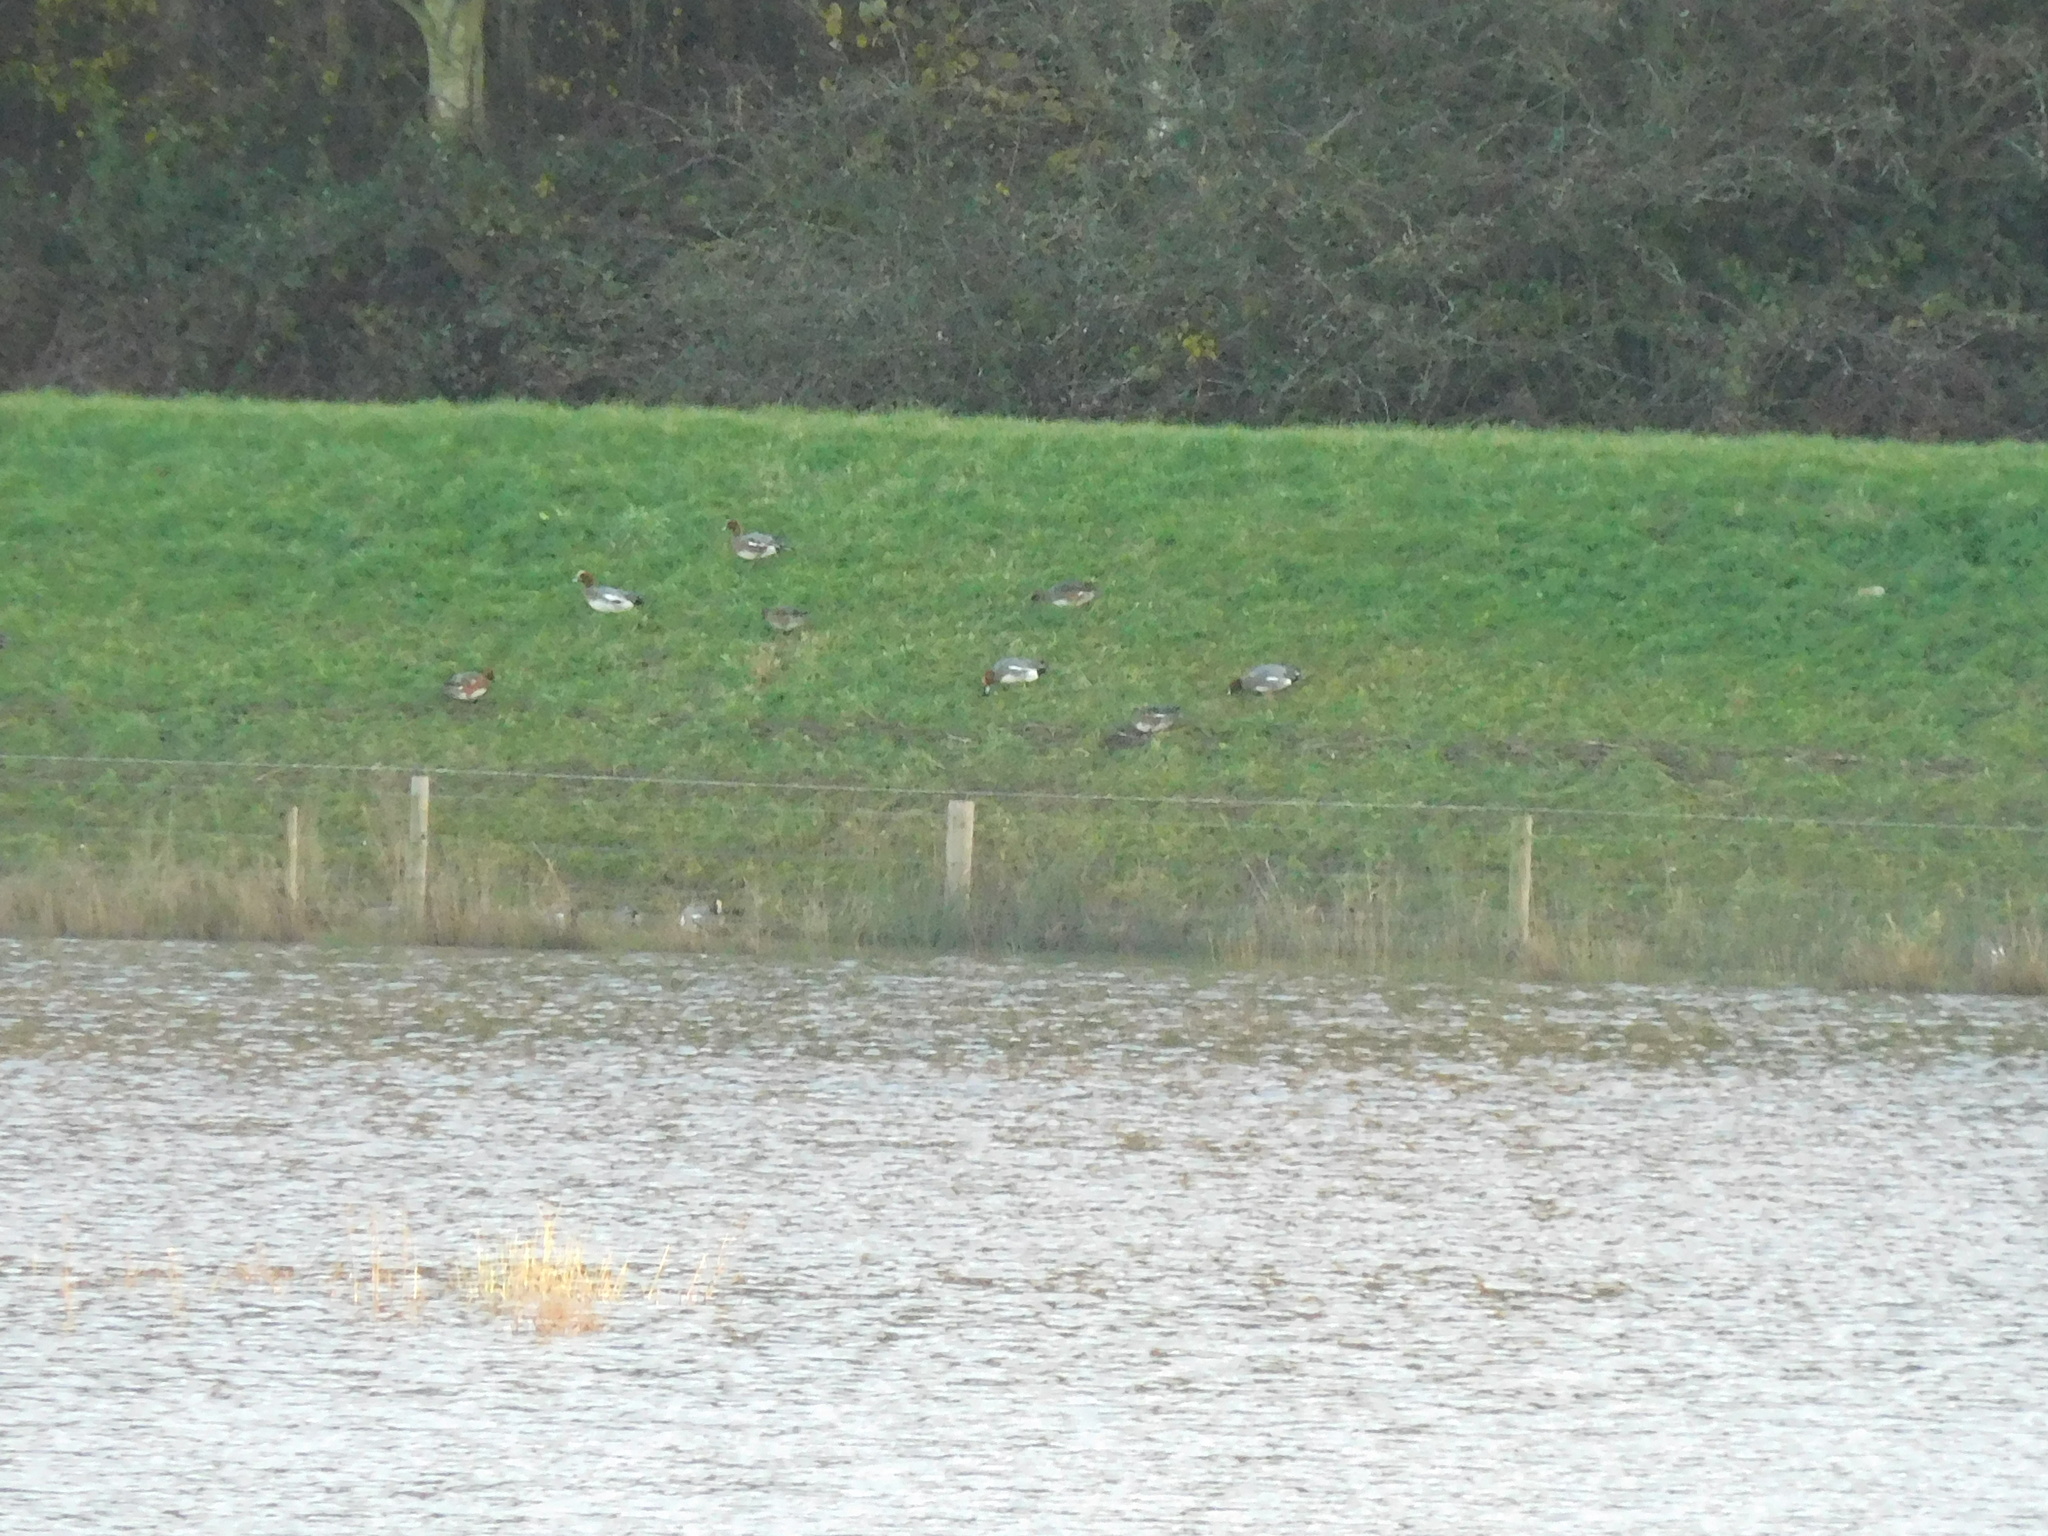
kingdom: Animalia
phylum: Chordata
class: Aves
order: Anseriformes
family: Anatidae
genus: Mareca
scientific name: Mareca penelope
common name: Eurasian wigeon
